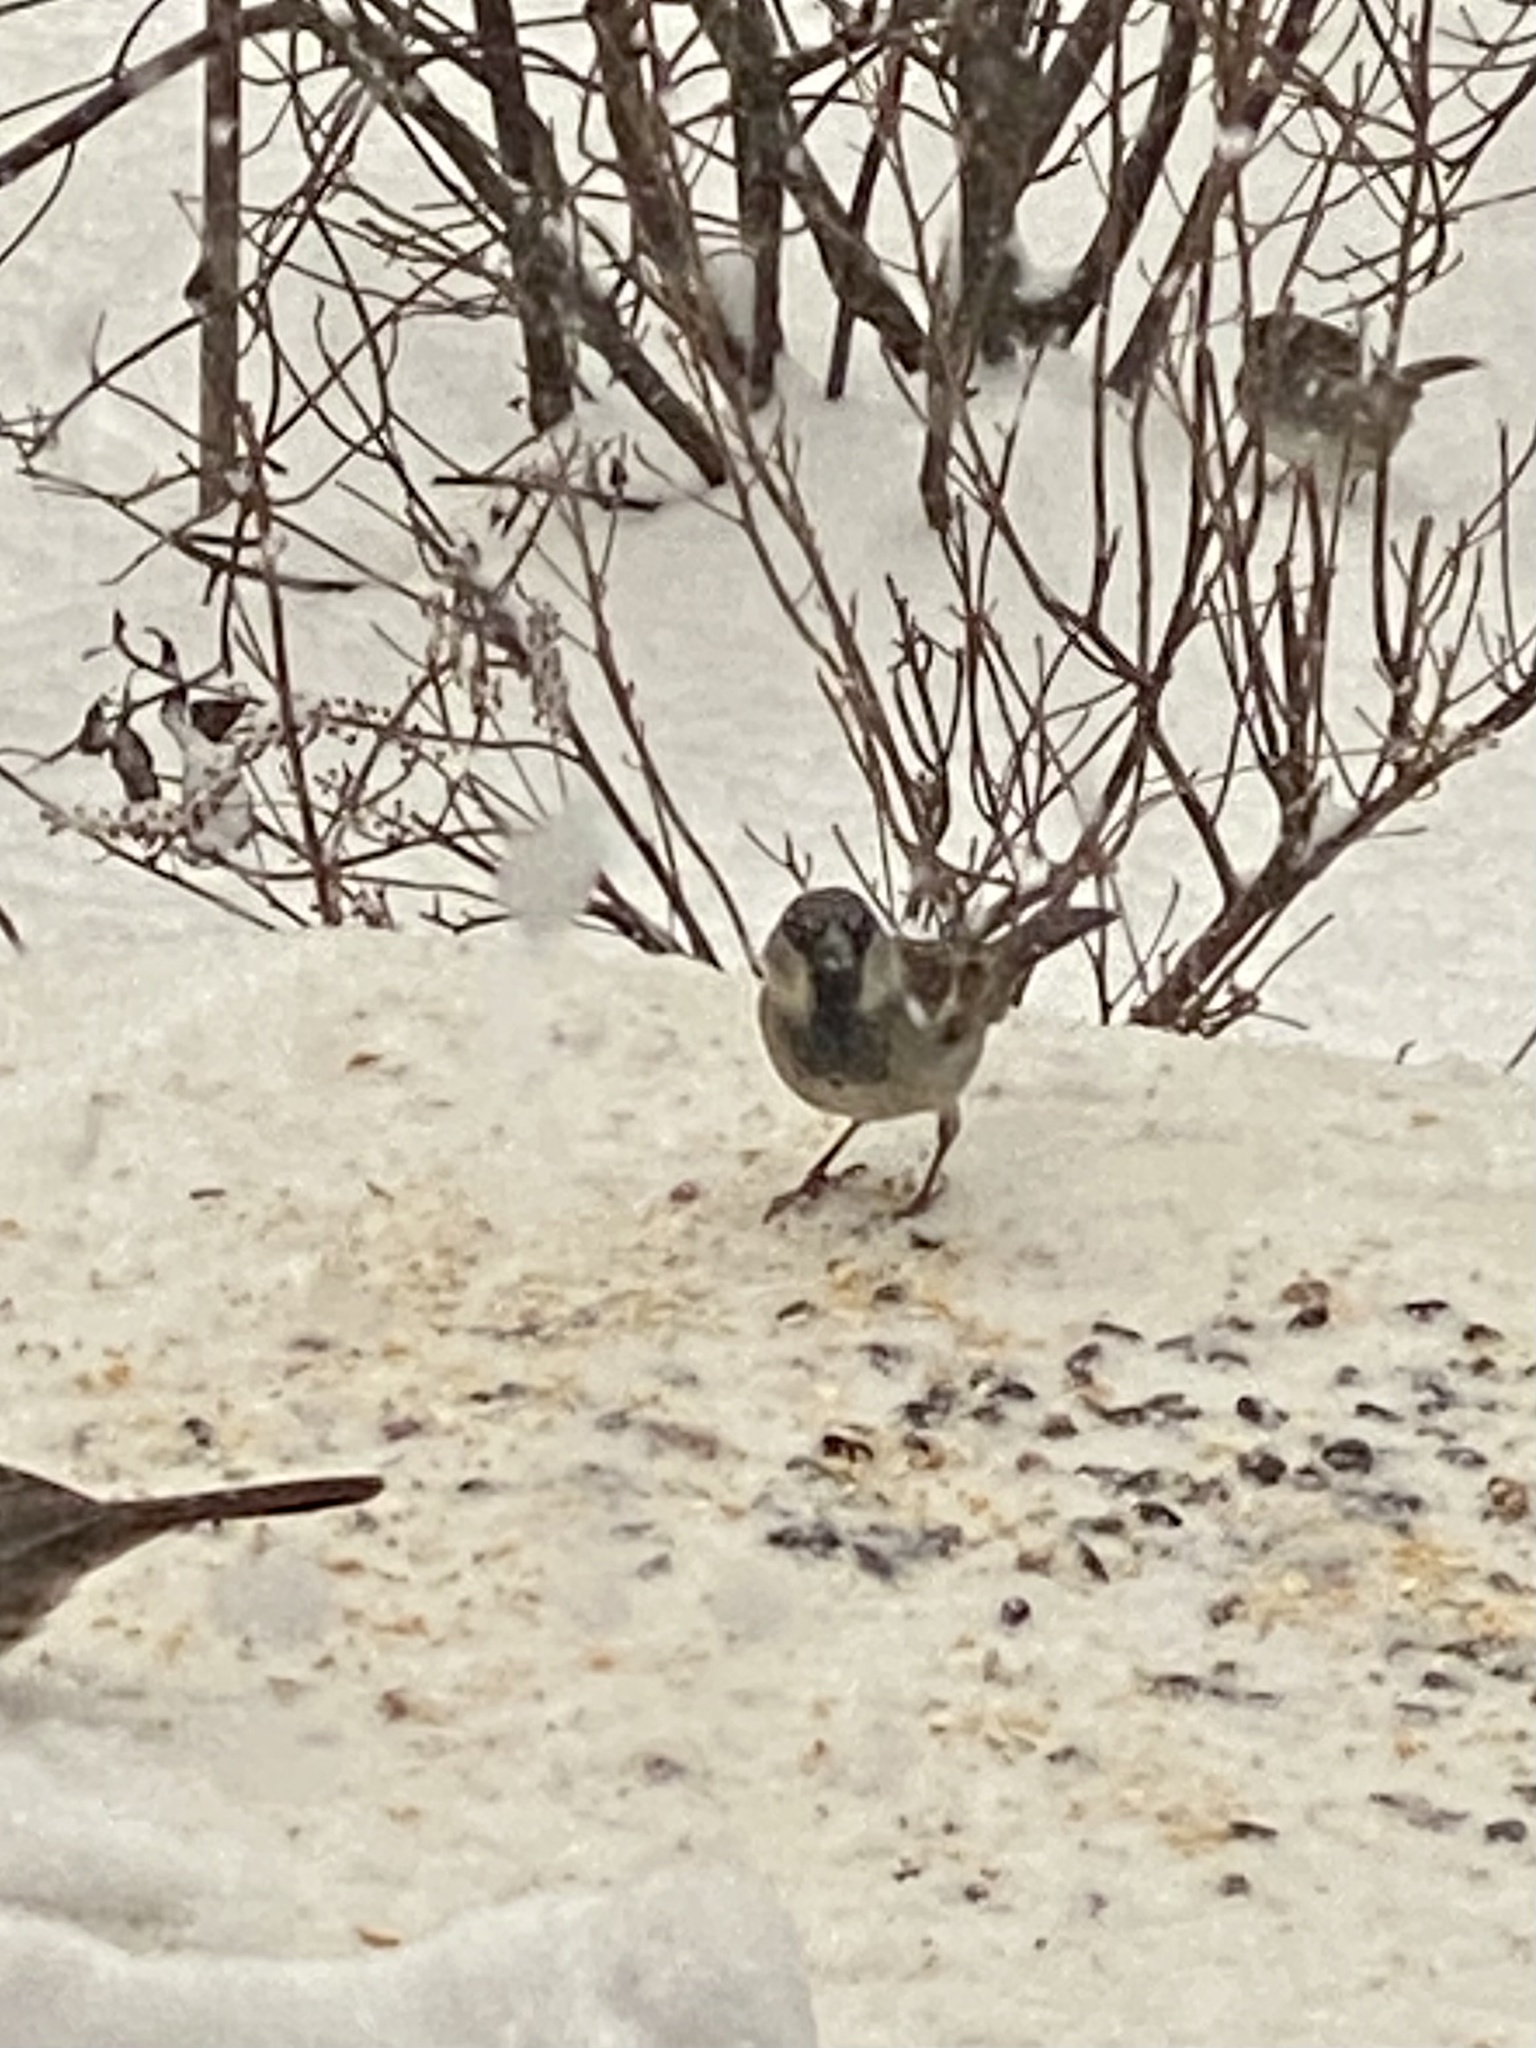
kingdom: Animalia
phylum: Chordata
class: Aves
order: Passeriformes
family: Passeridae
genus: Passer
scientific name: Passer domesticus
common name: House sparrow
